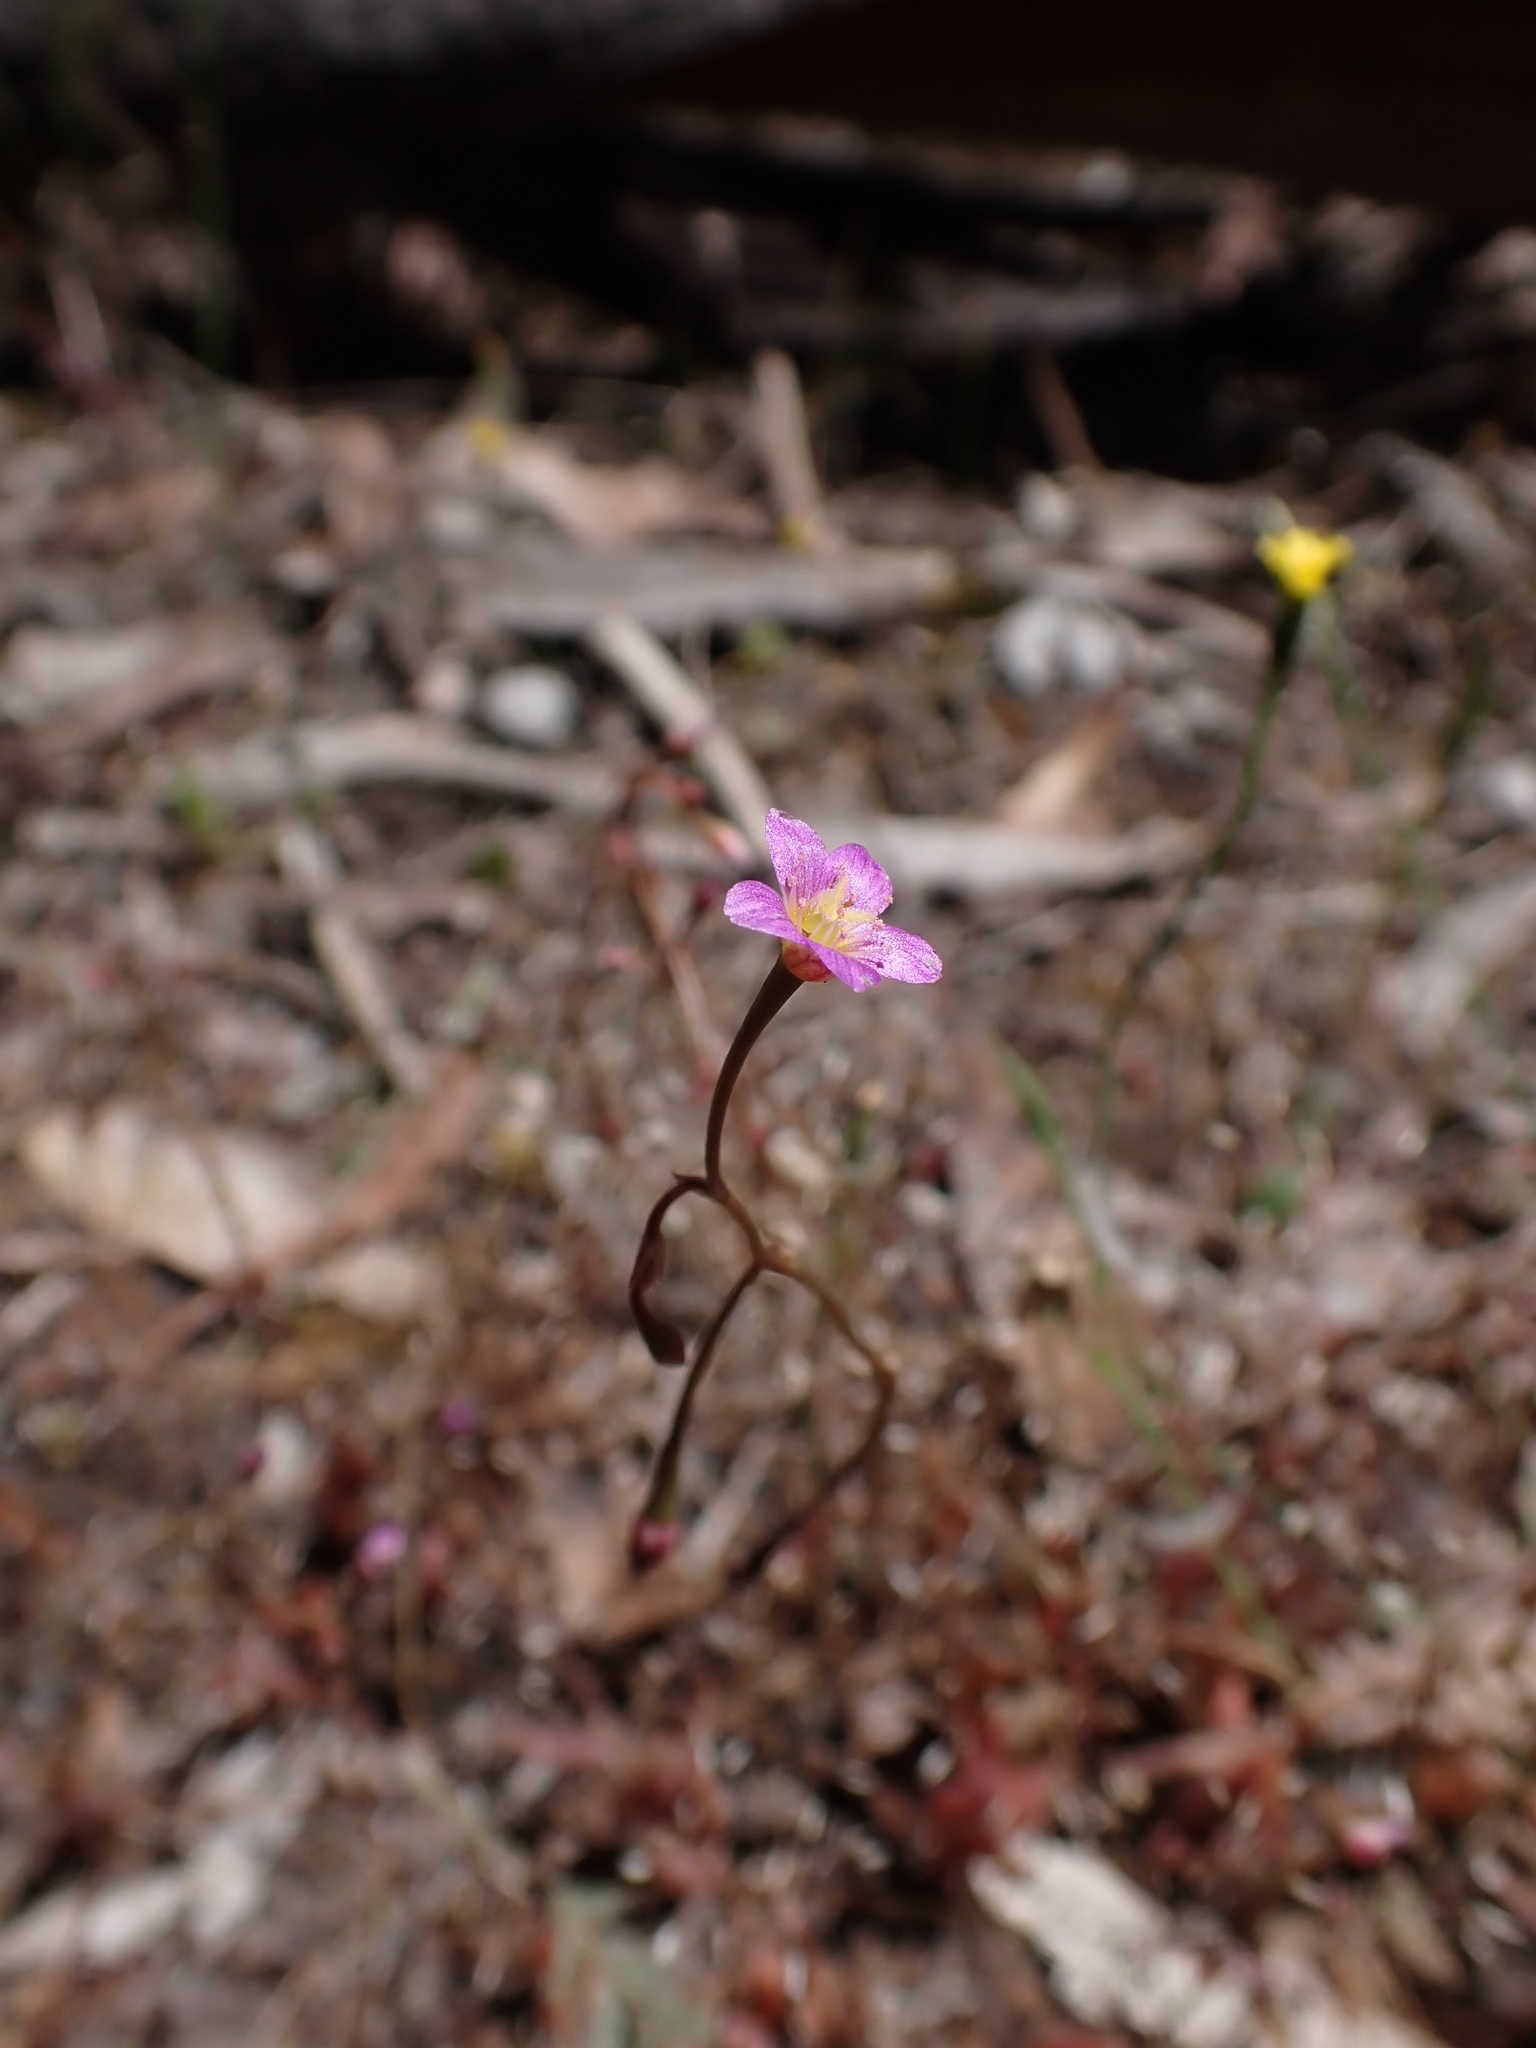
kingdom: Plantae
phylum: Tracheophyta
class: Magnoliopsida
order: Caryophyllales
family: Montiaceae
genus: Rumicastrum
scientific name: Rumicastrum eremaeum
